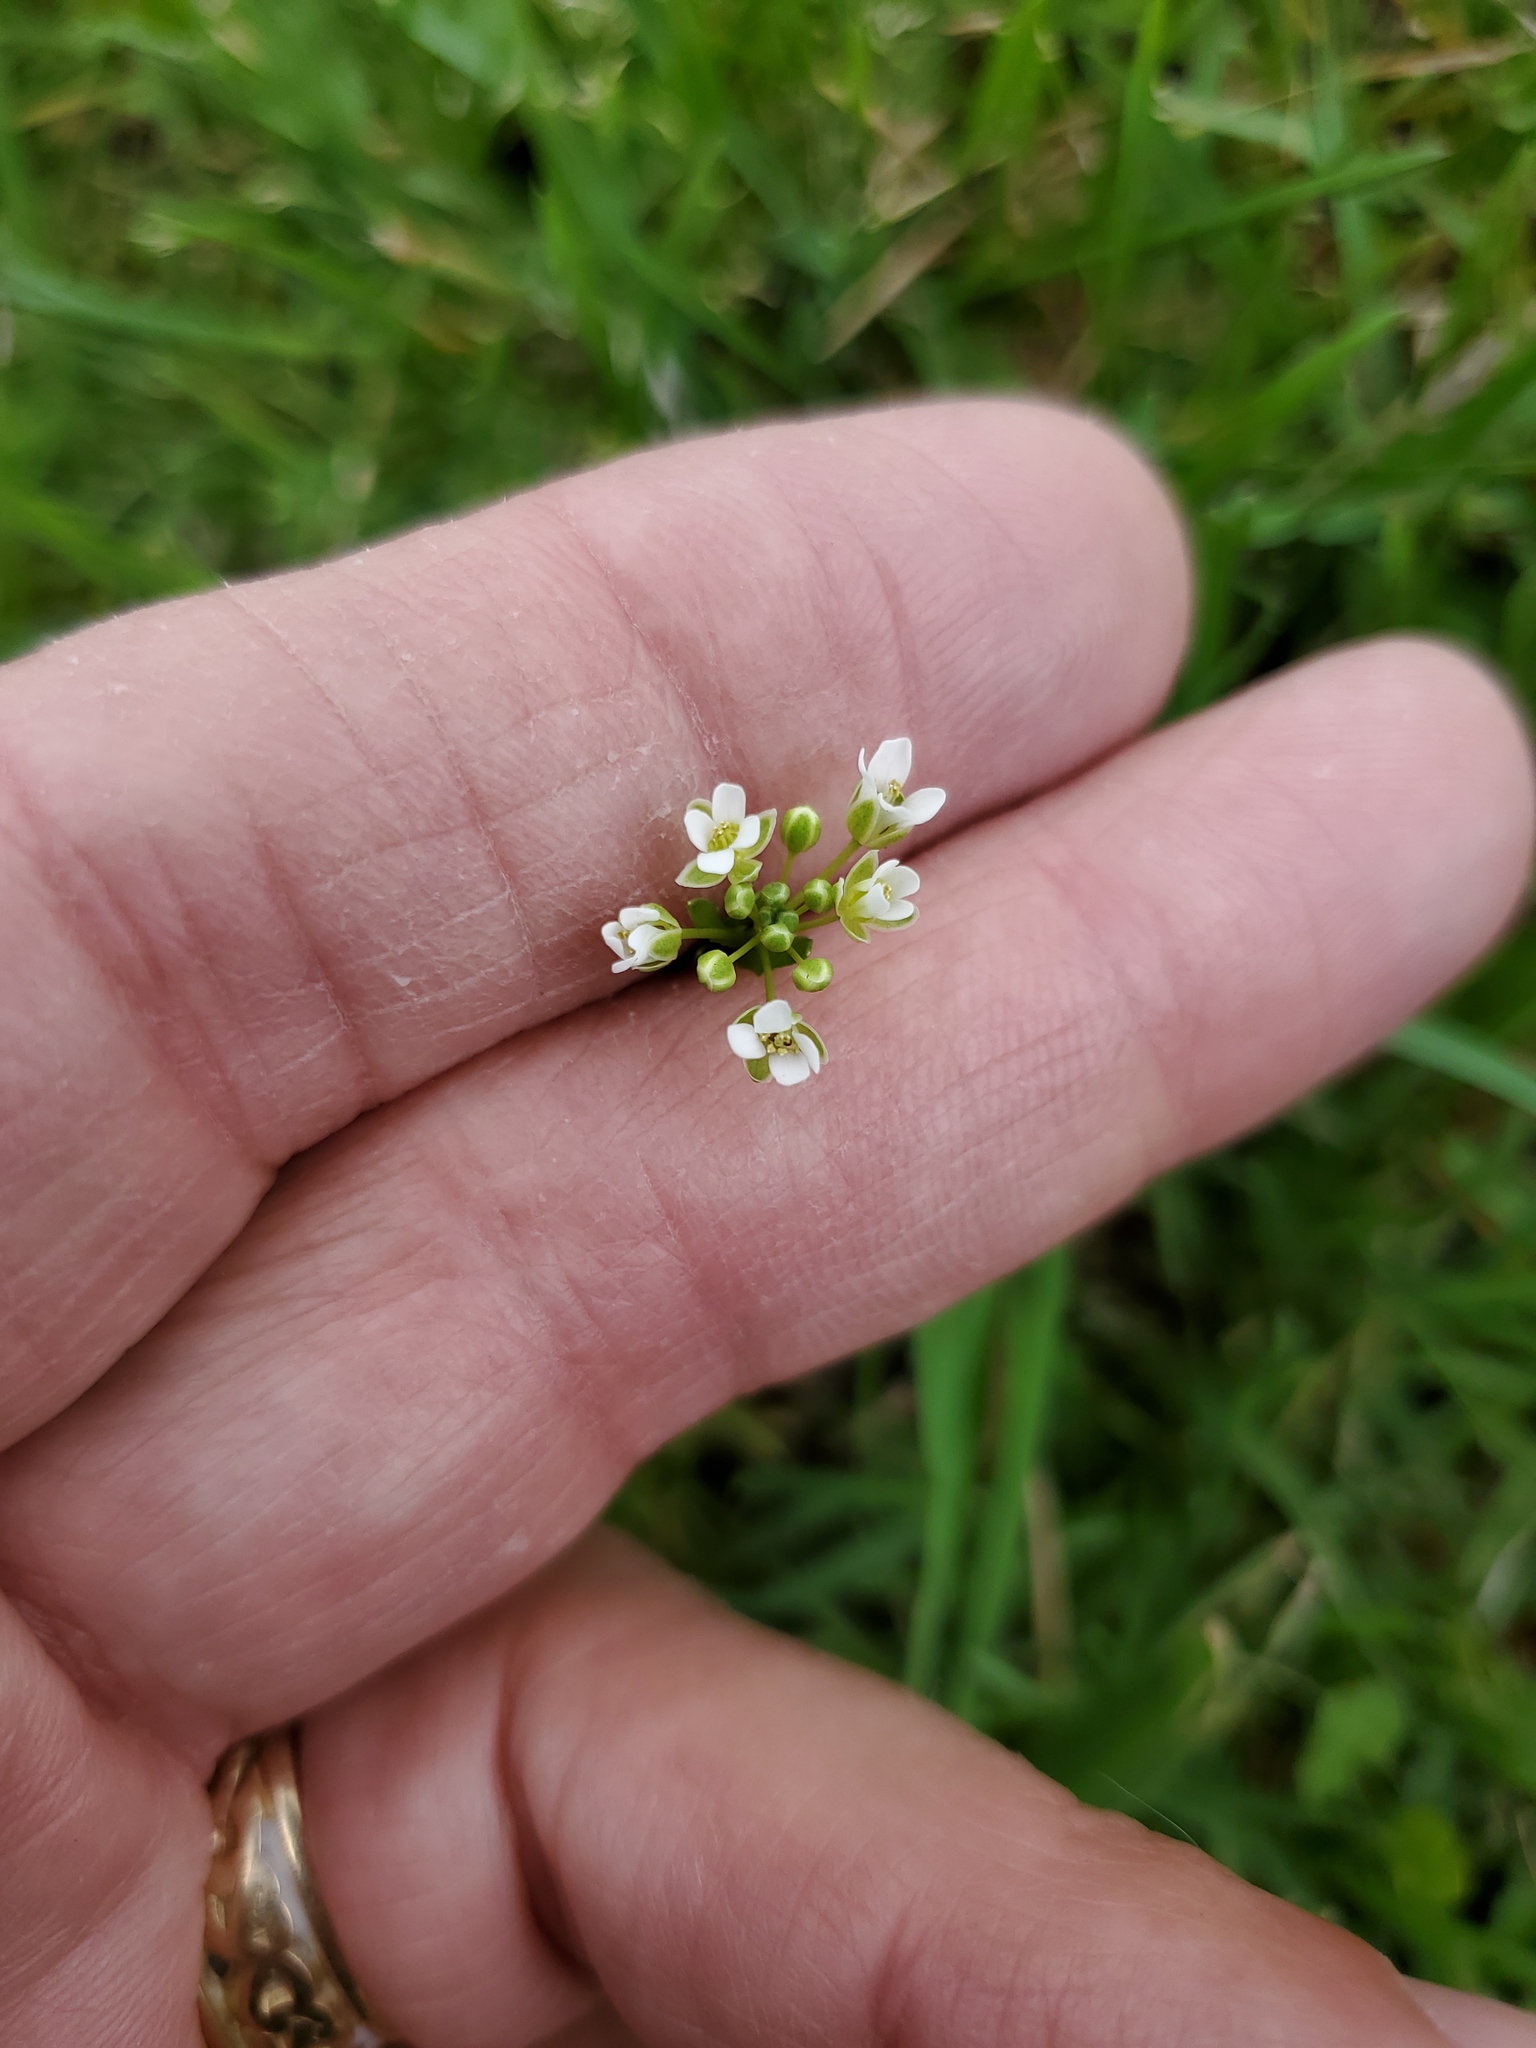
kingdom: Plantae
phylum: Tracheophyta
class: Magnoliopsida
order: Brassicales
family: Brassicaceae
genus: Thlaspi
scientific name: Thlaspi arvense
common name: Field pennycress
